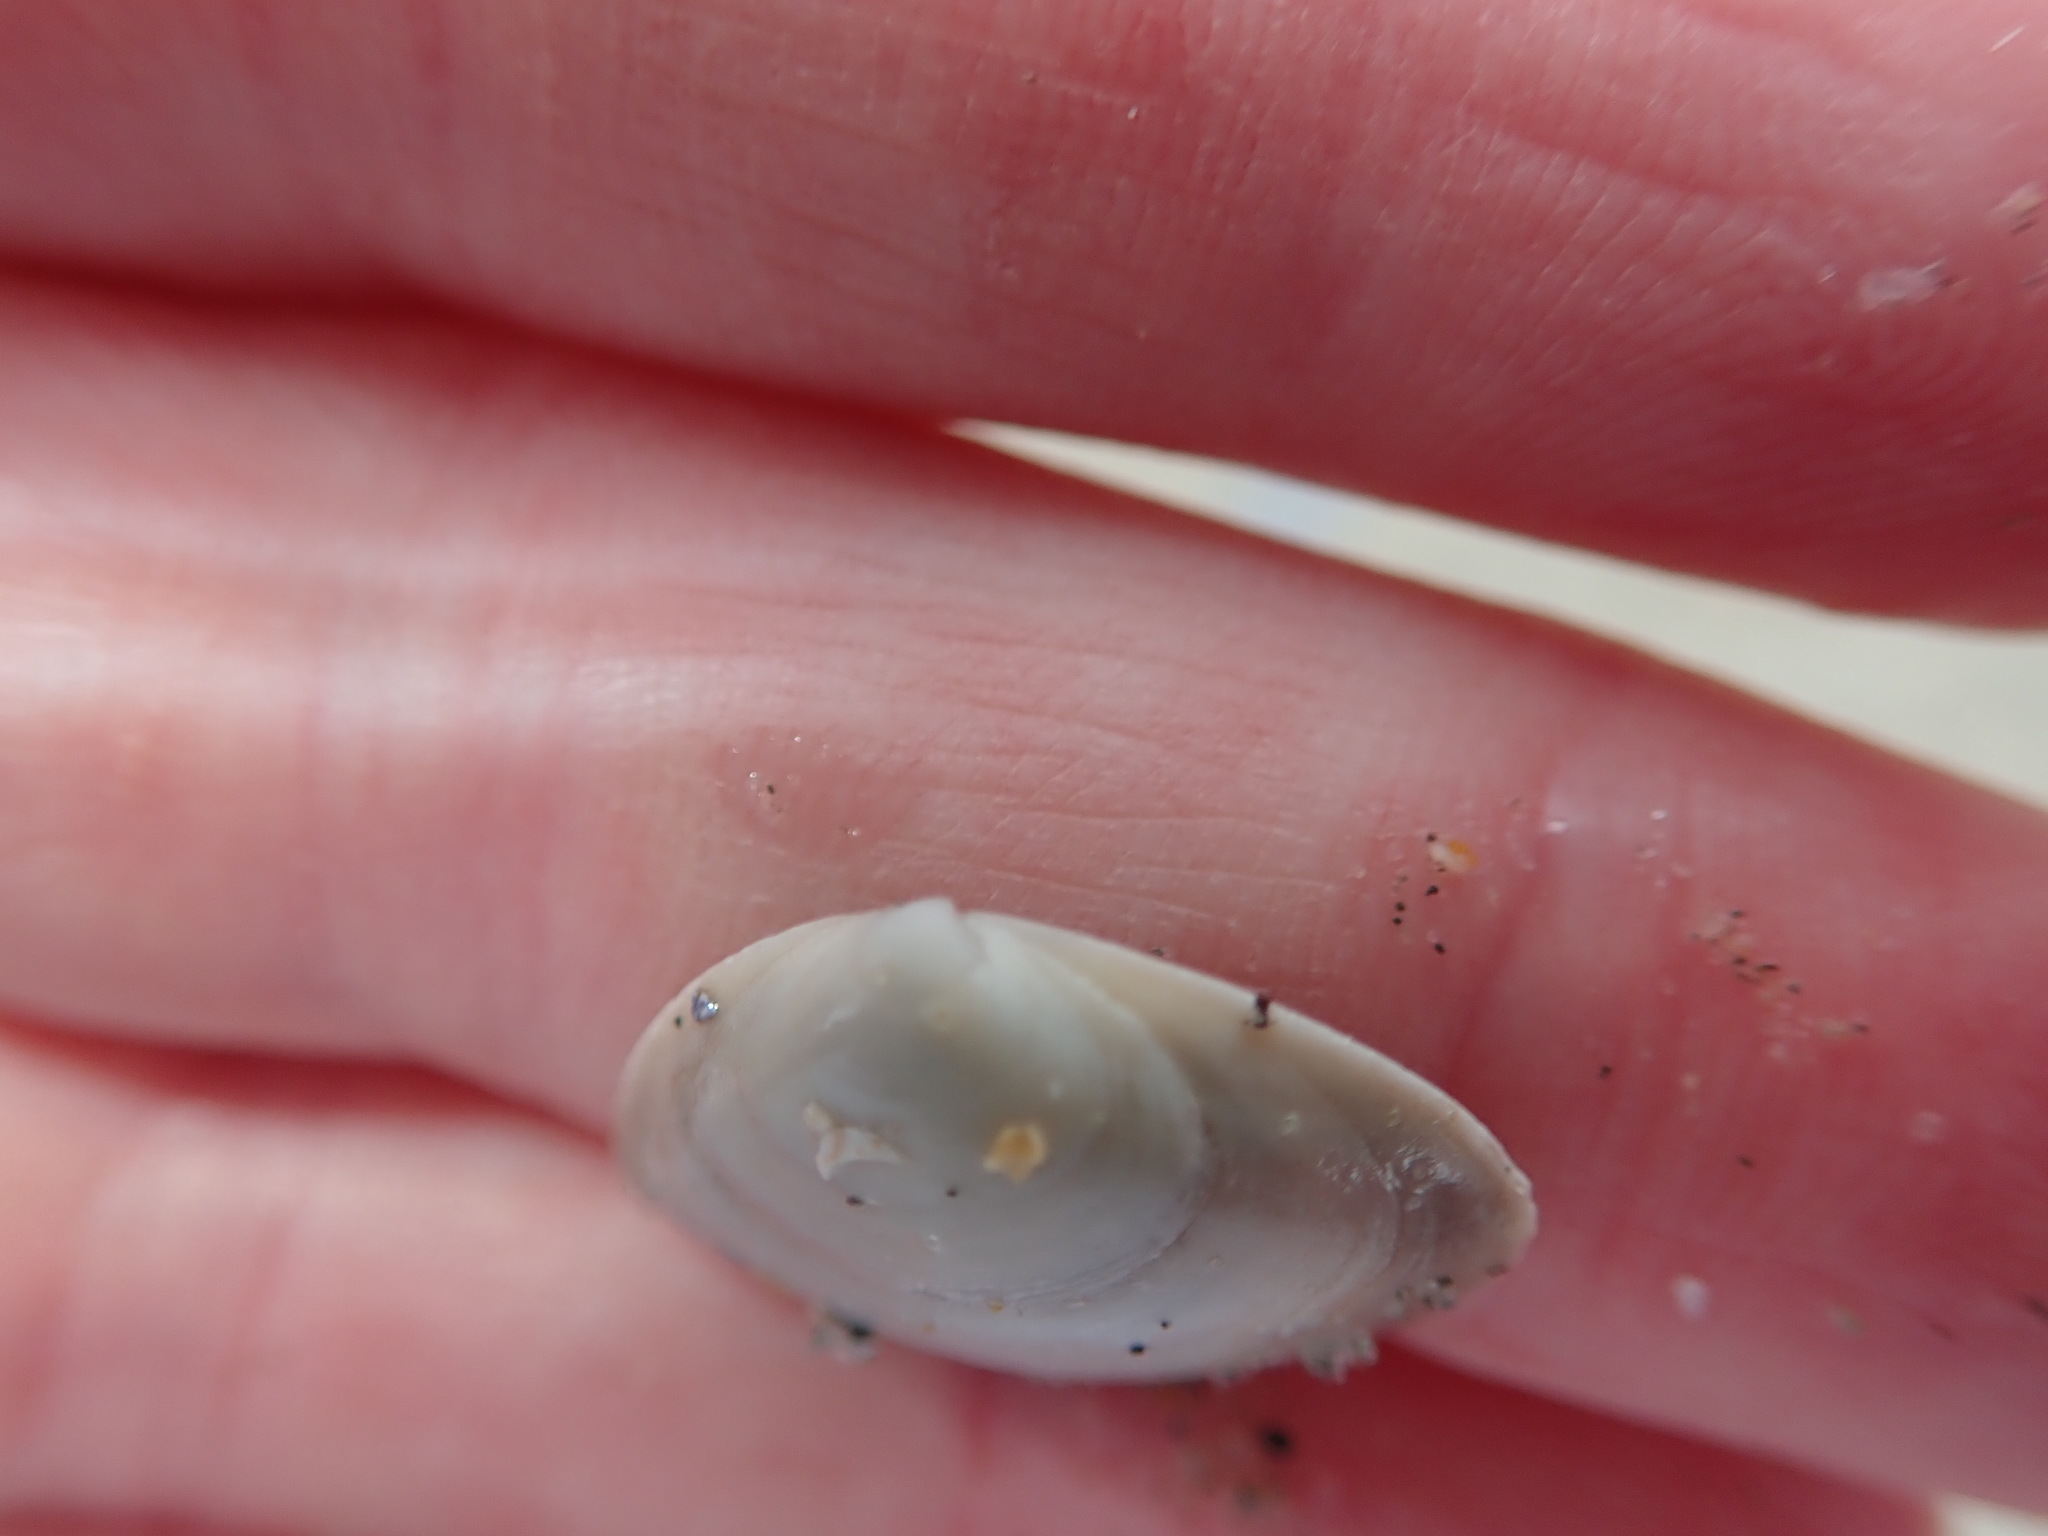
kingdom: Animalia
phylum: Mollusca
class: Bivalvia
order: Venerida
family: Mactridae
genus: Spisula
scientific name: Spisula solidissima
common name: Atlantic surf clam
